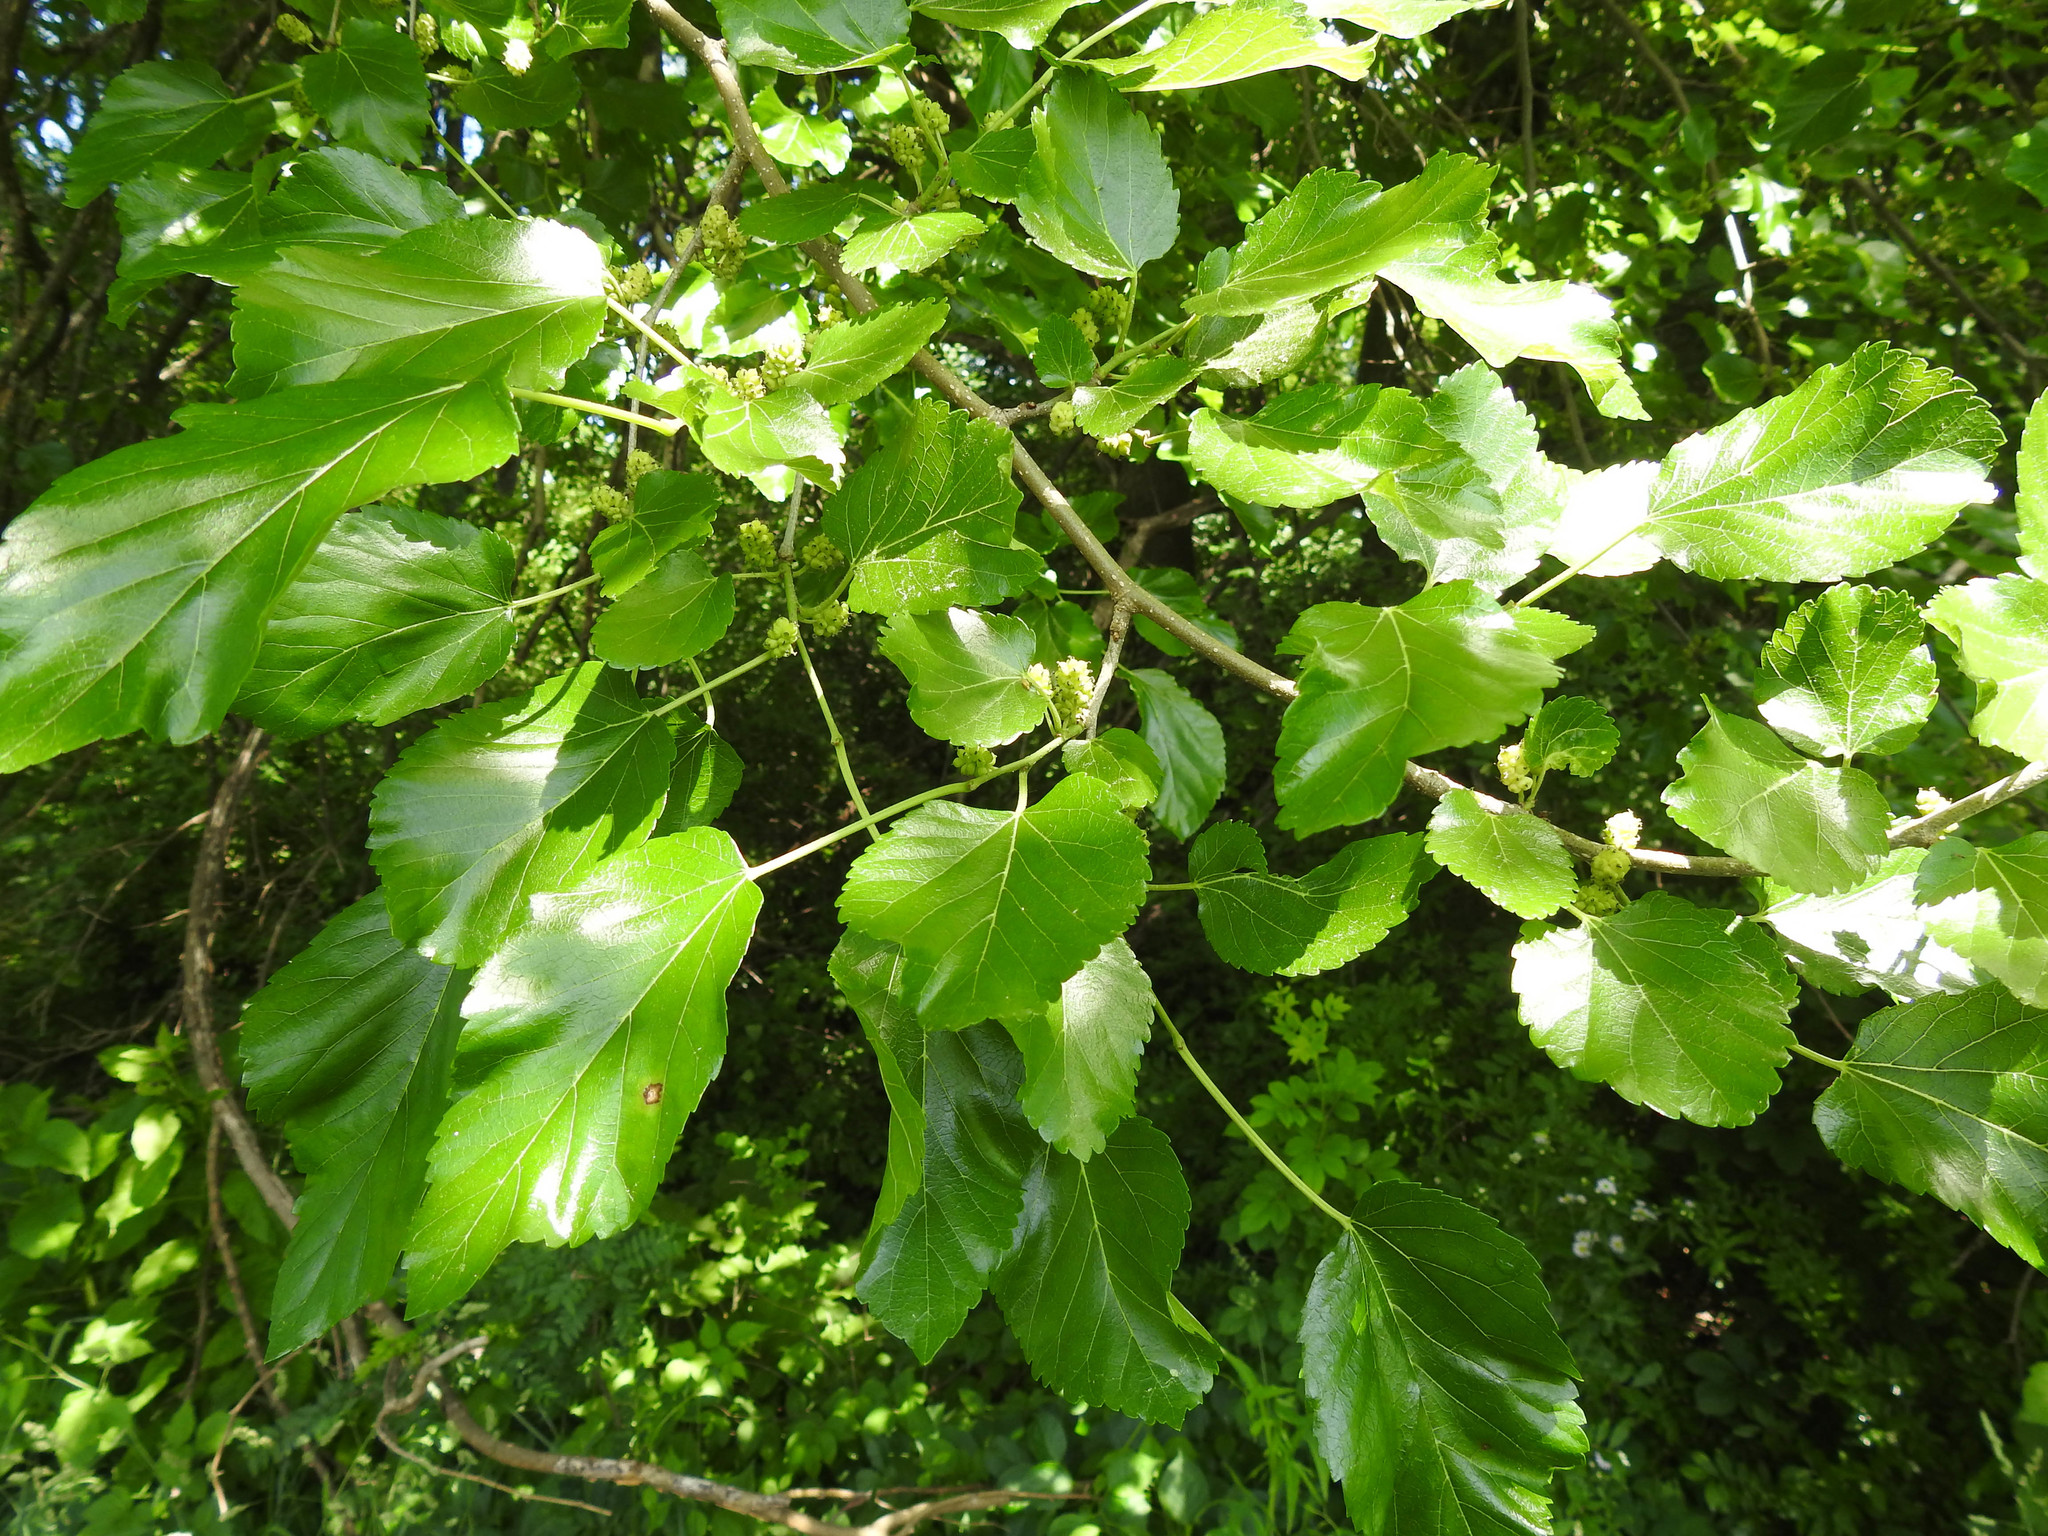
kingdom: Plantae
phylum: Tracheophyta
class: Magnoliopsida
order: Rosales
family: Moraceae
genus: Morus
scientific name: Morus alba
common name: White mulberry
